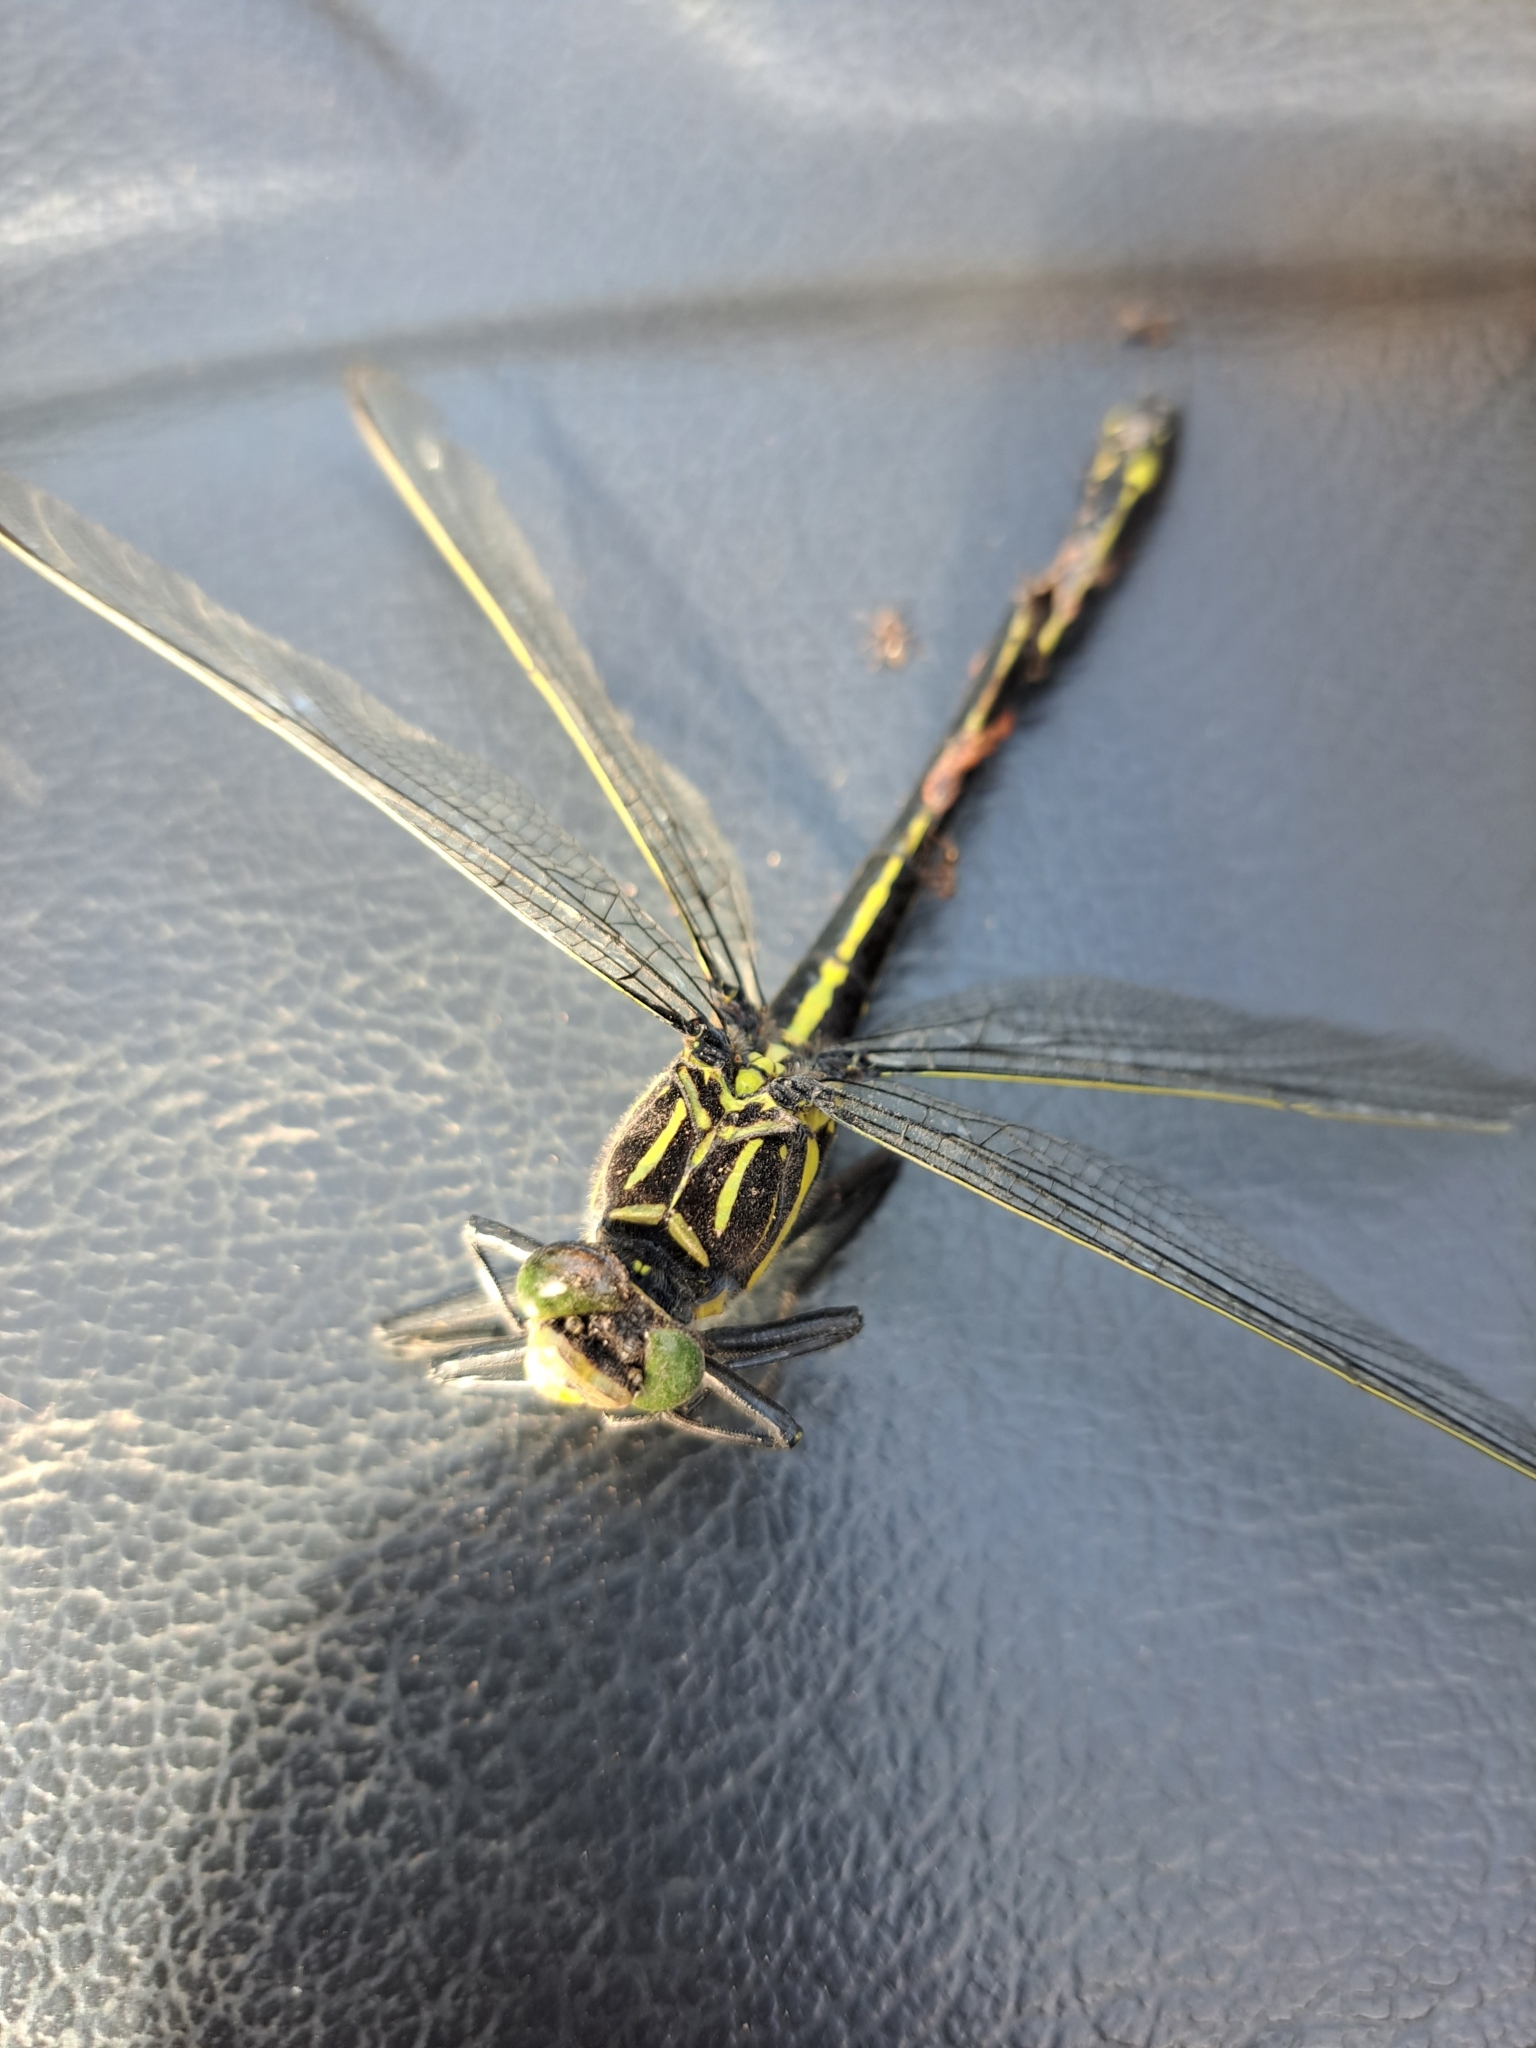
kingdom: Animalia
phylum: Arthropoda
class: Insecta
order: Odonata
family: Gomphidae
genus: Hagenius
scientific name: Hagenius brevistylus
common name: Dragonhunter
